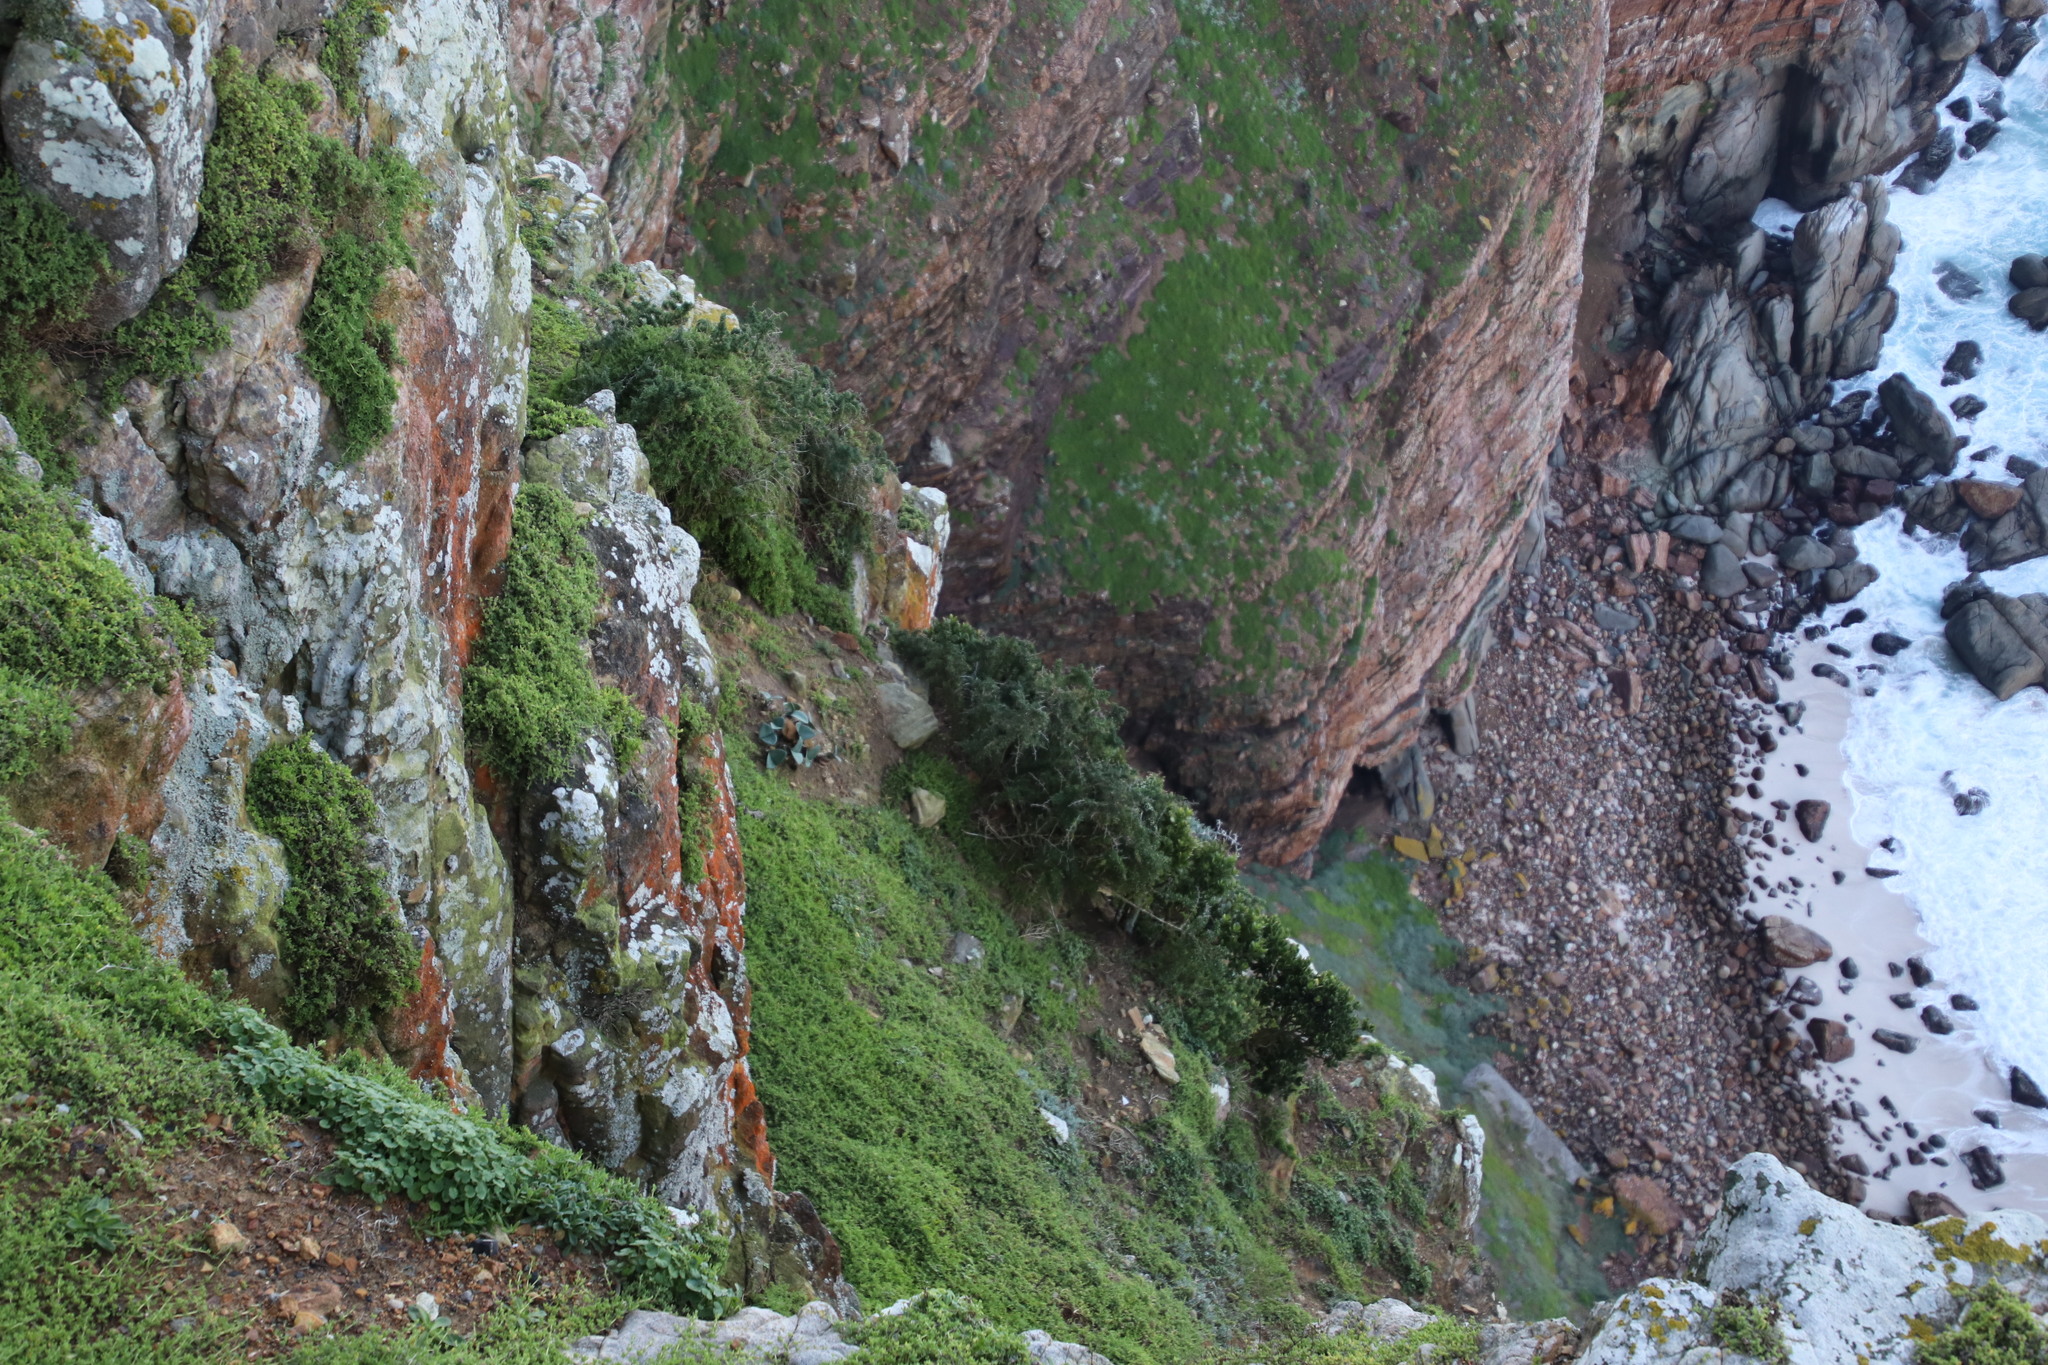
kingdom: Plantae
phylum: Tracheophyta
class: Liliopsida
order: Asparagales
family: Amaryllidaceae
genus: Haemanthus
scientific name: Haemanthus coccineus
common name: Cape-tulip
